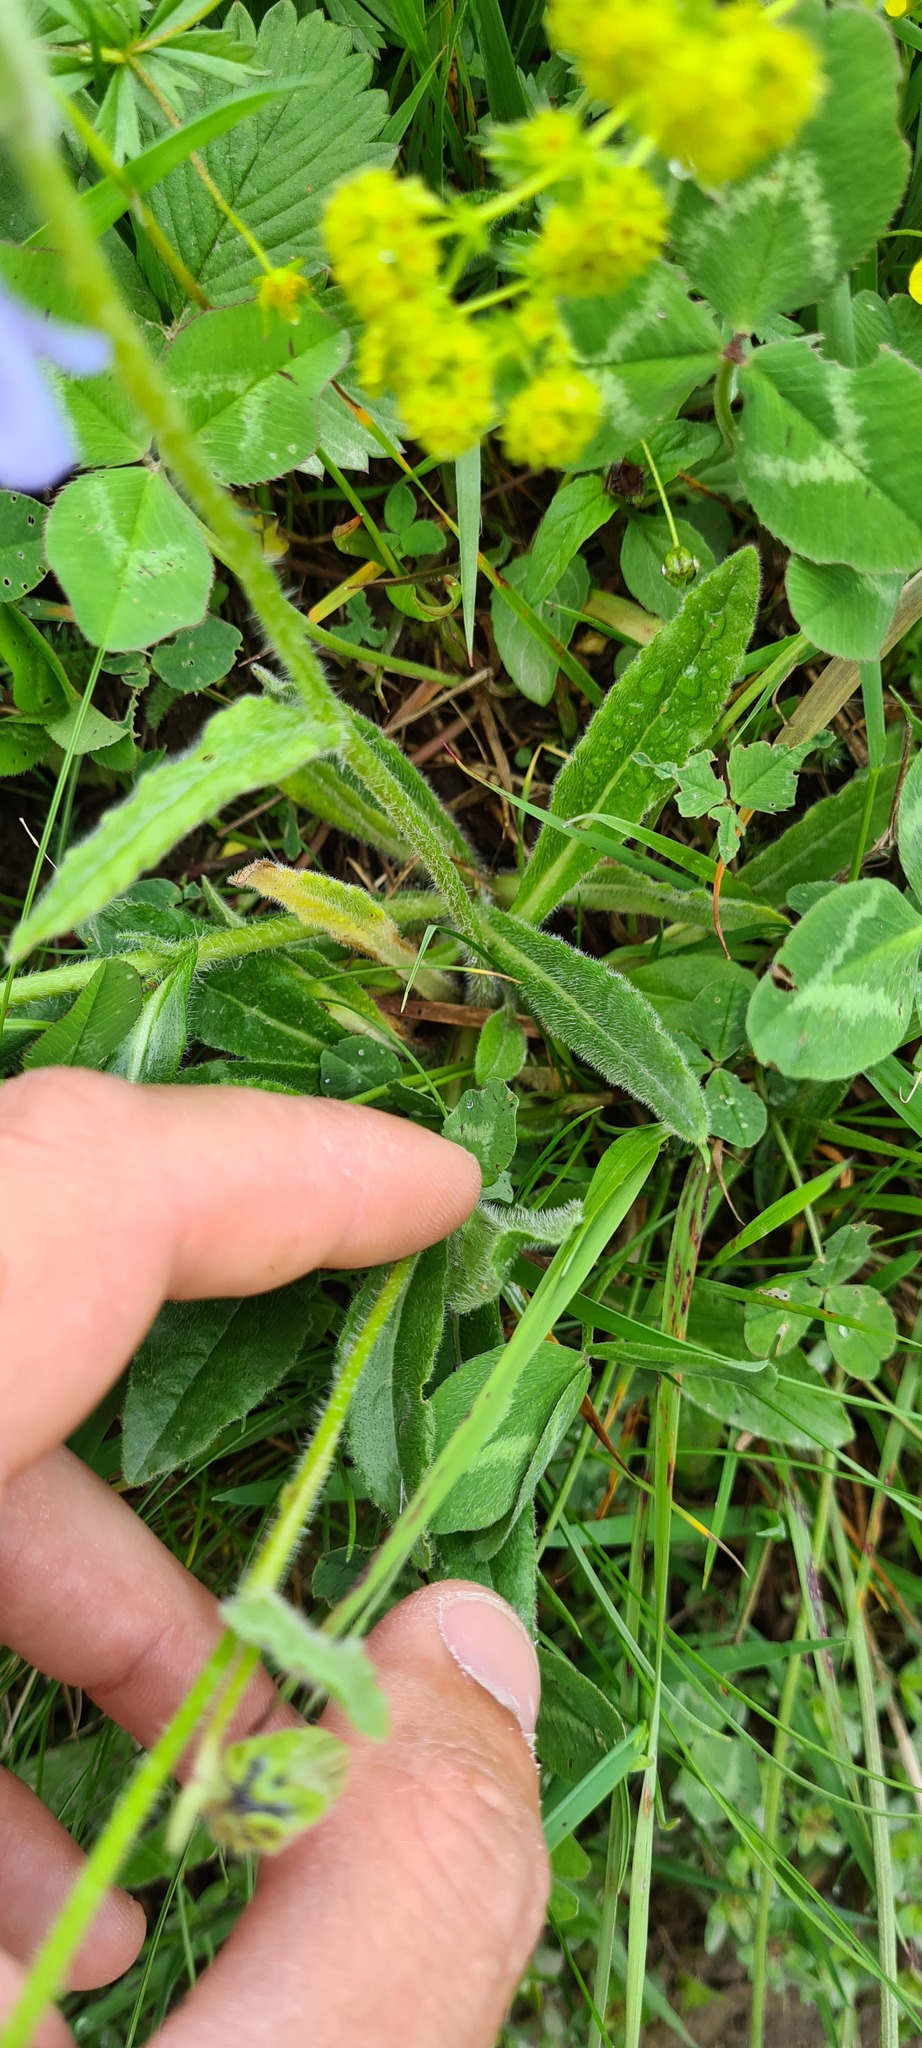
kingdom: Plantae
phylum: Tracheophyta
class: Magnoliopsida
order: Asterales
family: Campanulaceae
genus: Campanula
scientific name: Campanula barbata
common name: Bearded bellflower
